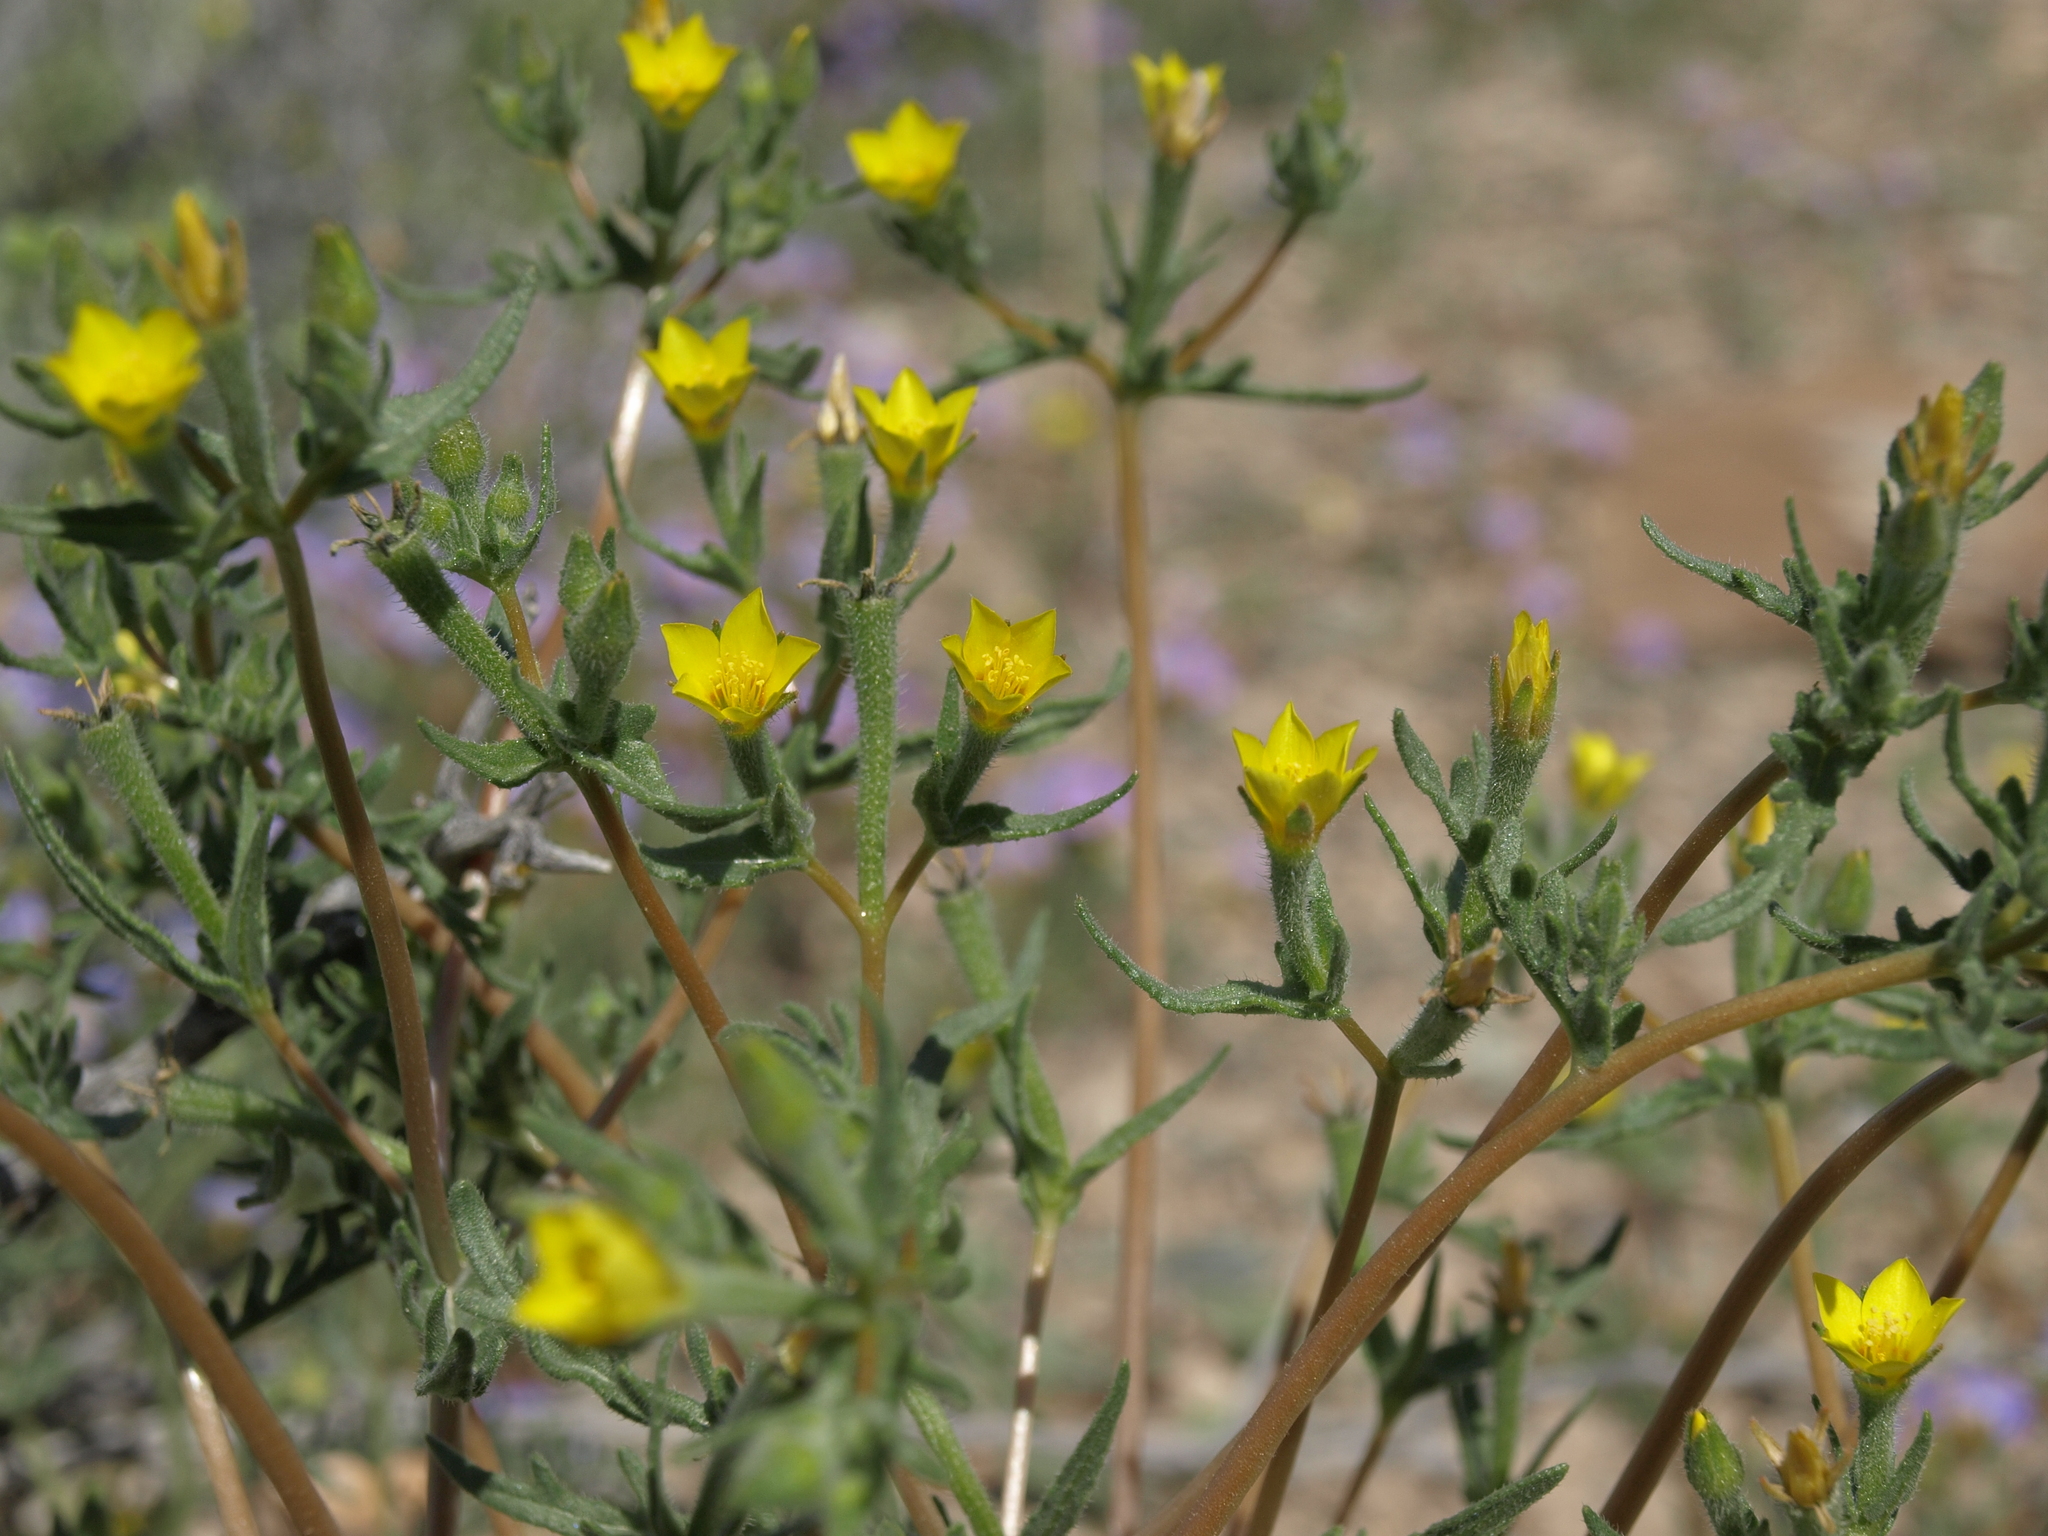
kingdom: Plantae
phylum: Tracheophyta
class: Magnoliopsida
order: Cornales
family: Loasaceae
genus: Mentzelia
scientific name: Mentzelia albicaulis
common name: White-stem blazingstar
